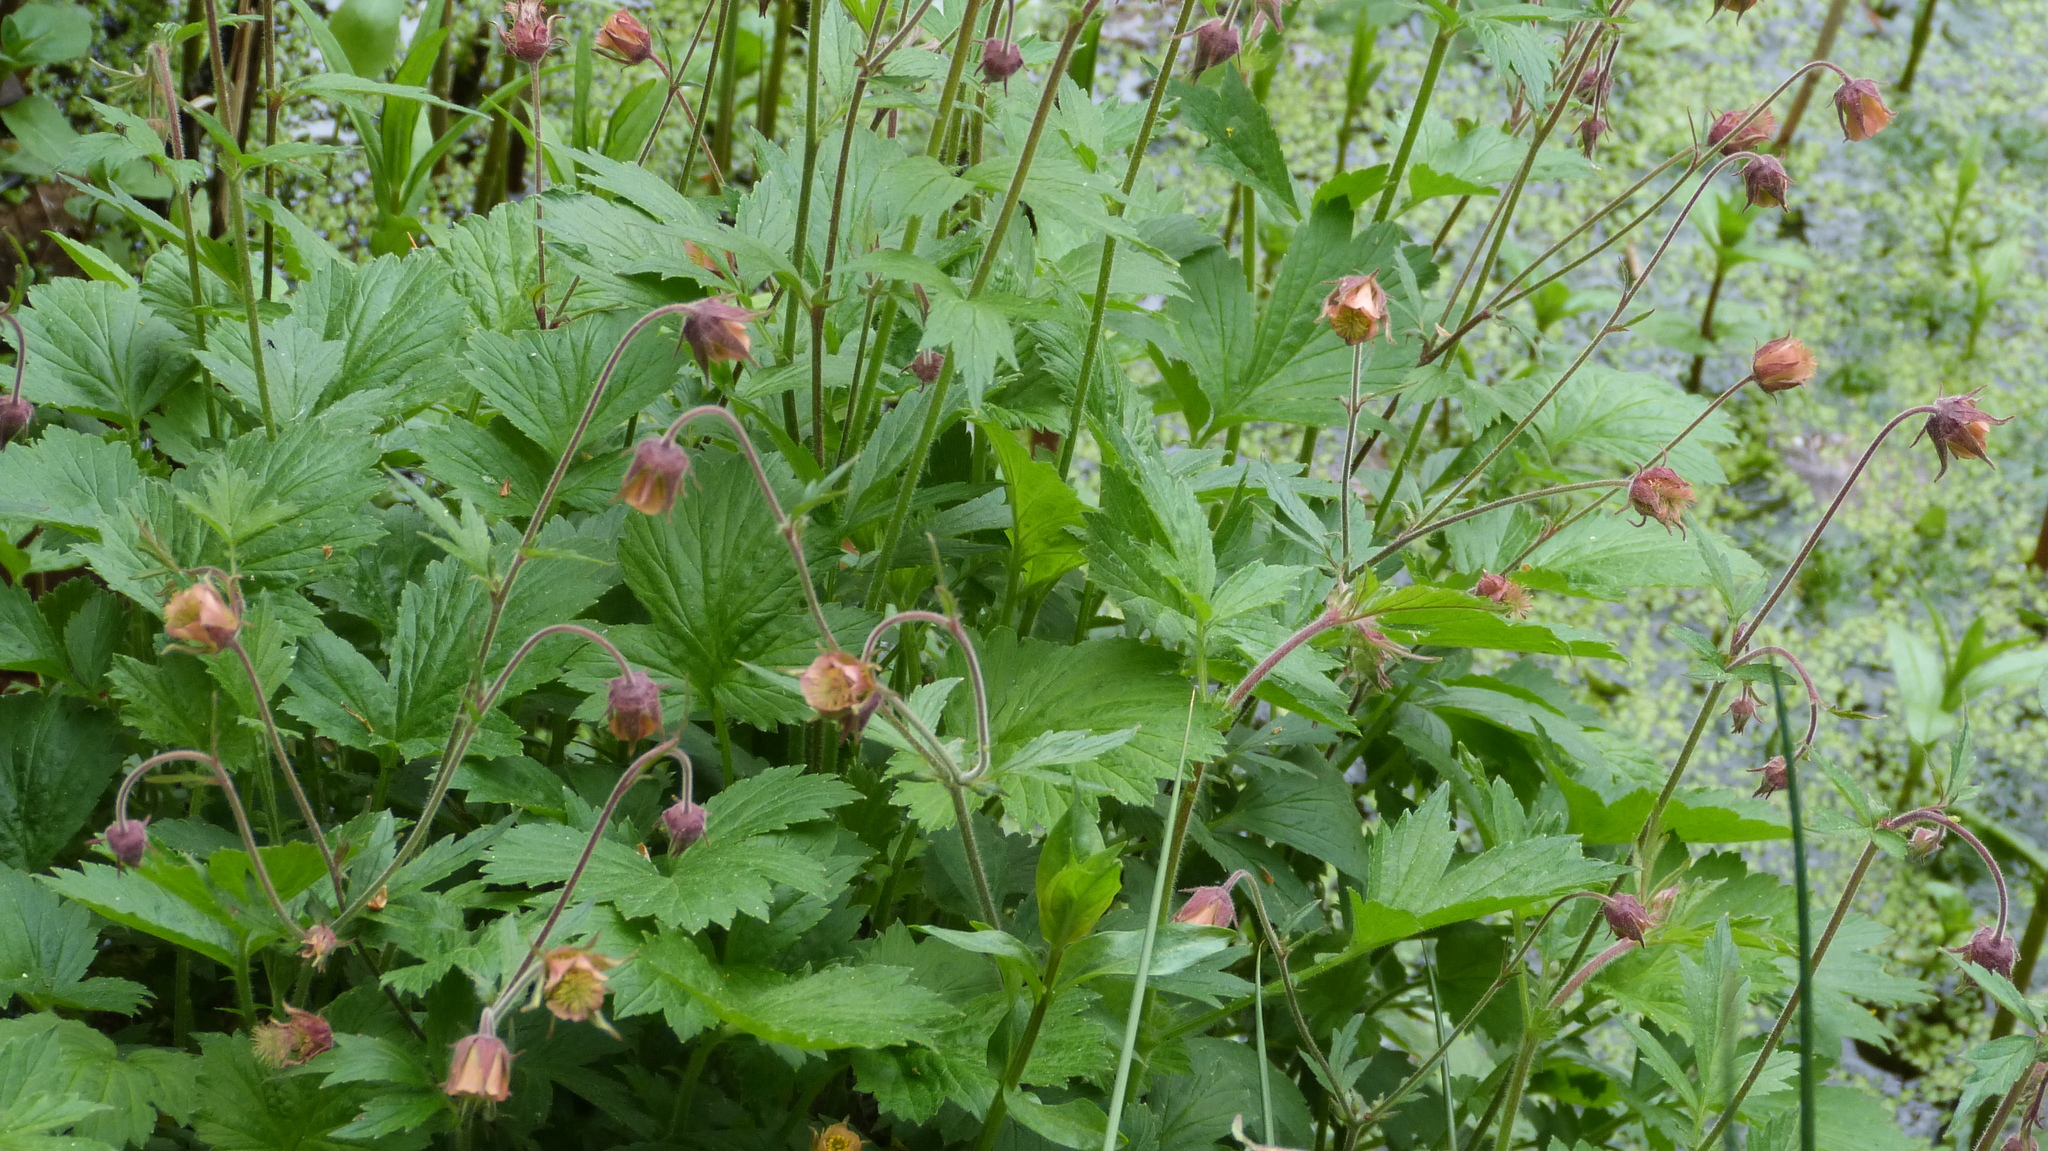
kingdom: Plantae
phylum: Tracheophyta
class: Magnoliopsida
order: Rosales
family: Rosaceae
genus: Geum
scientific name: Geum rivale
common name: Water avens
